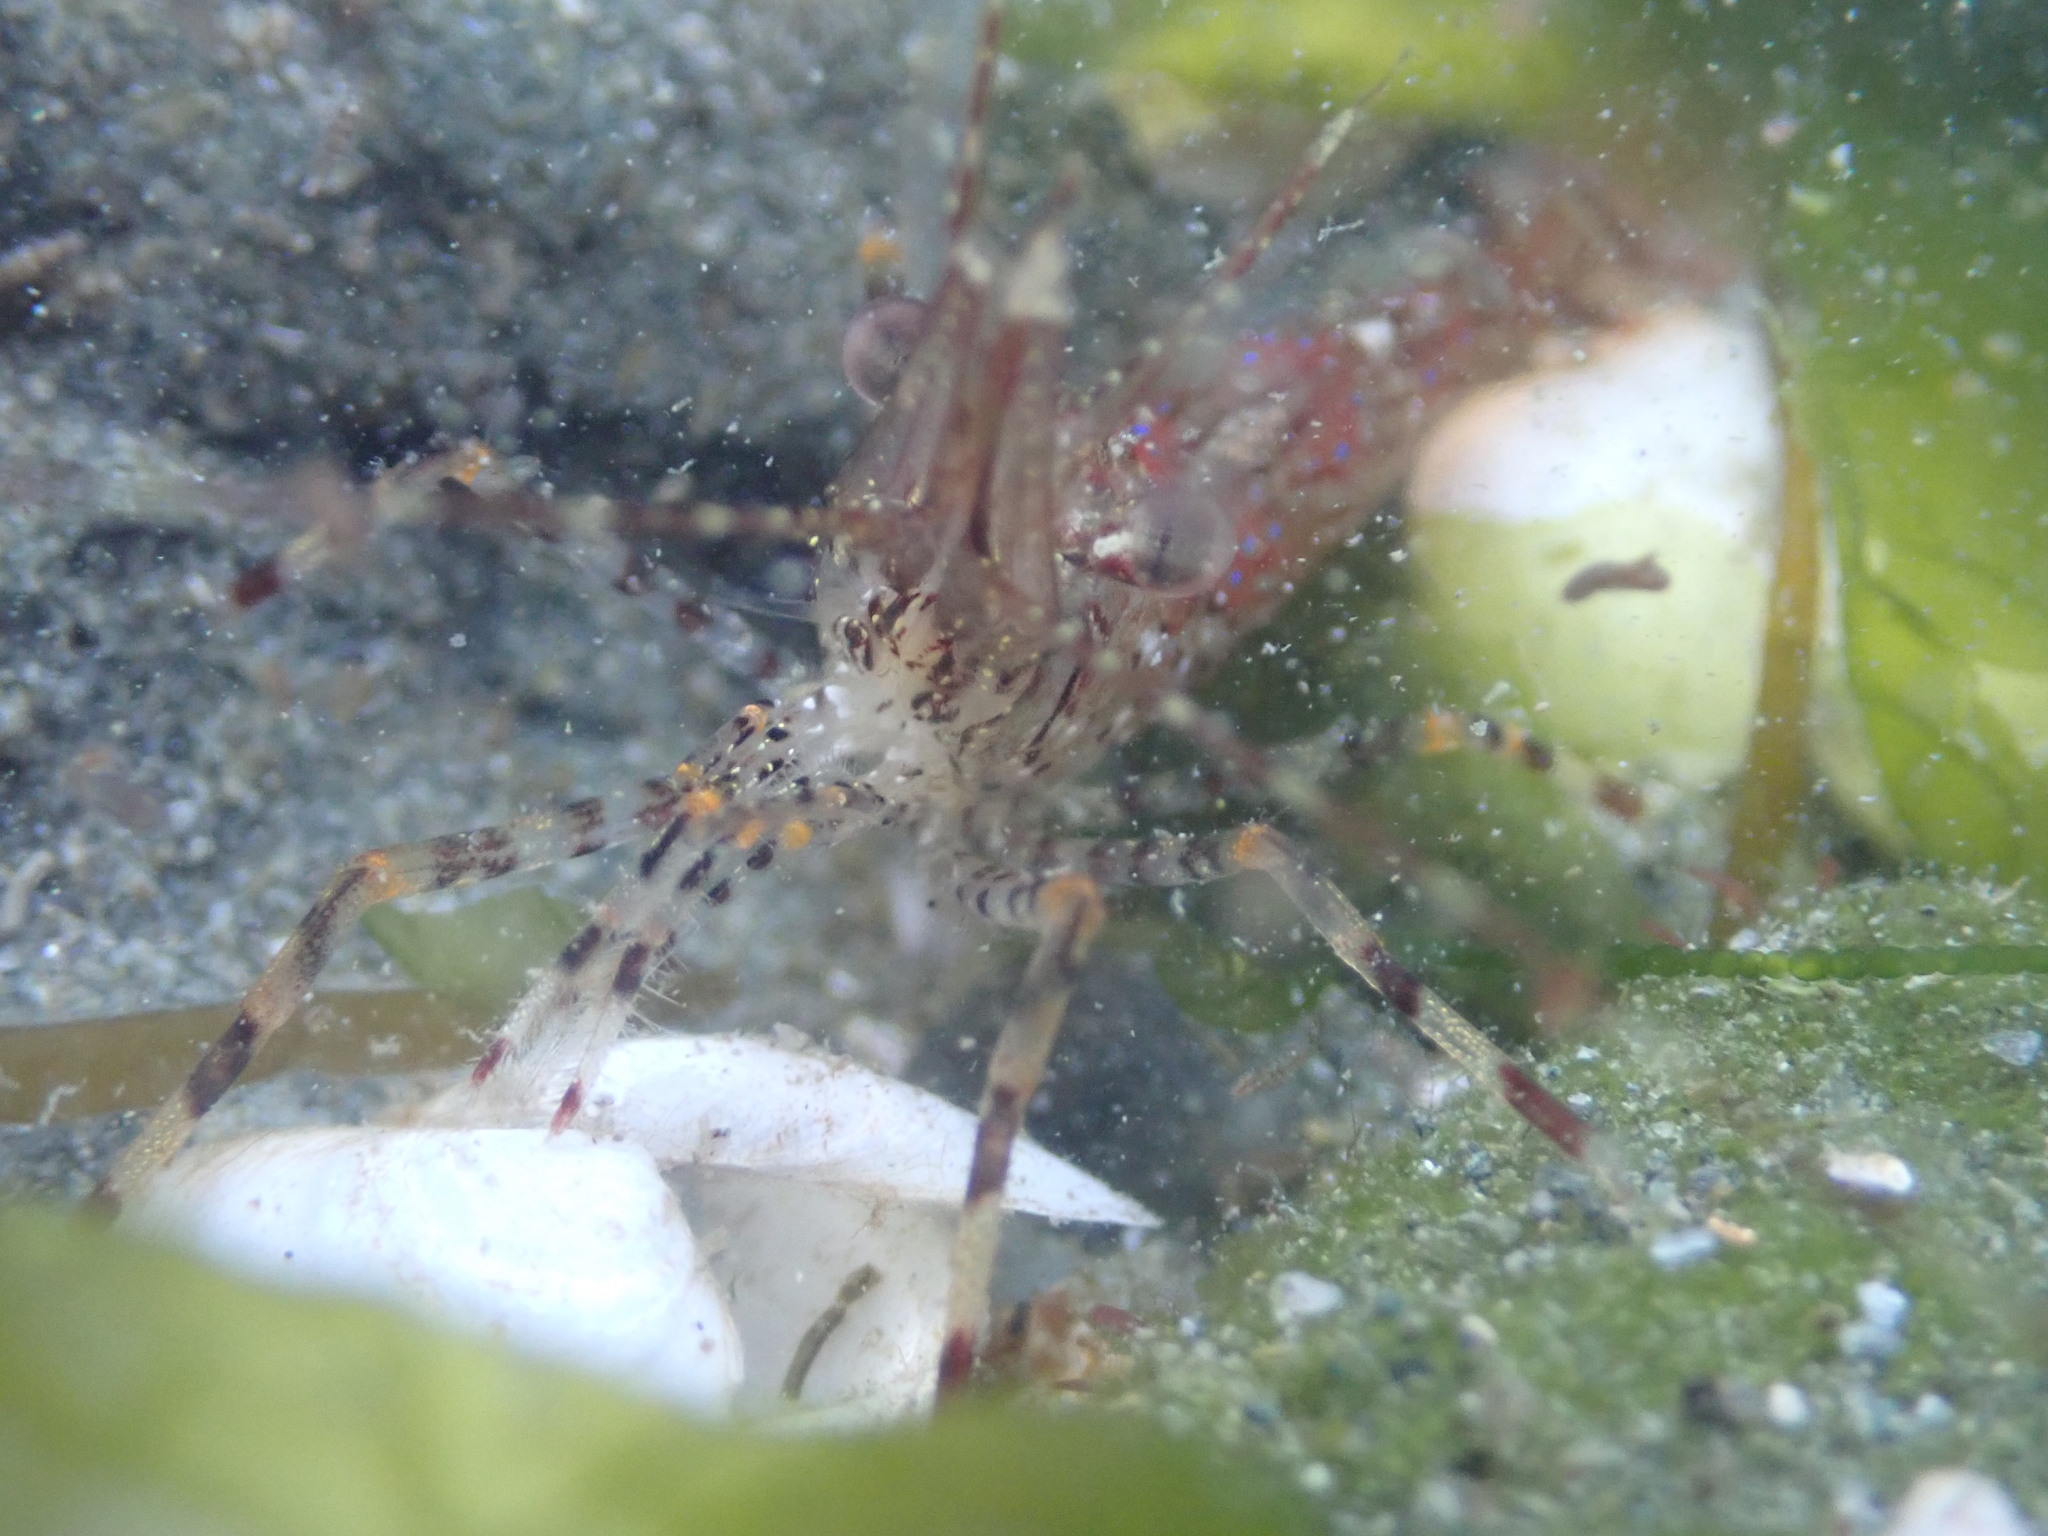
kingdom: Animalia
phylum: Arthropoda
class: Malacostraca
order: Decapoda
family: Pandalidae
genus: Pandalus
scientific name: Pandalus danae
